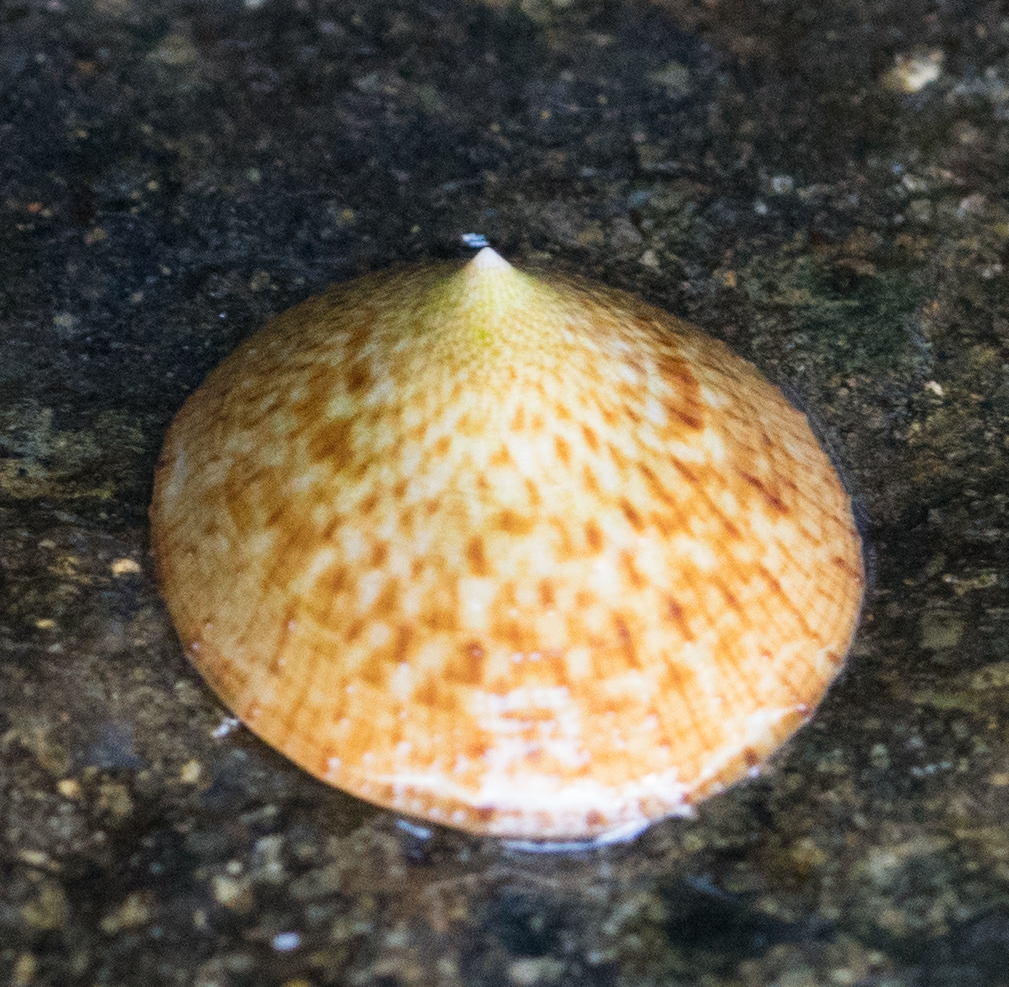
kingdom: Animalia
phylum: Mollusca
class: Gastropoda
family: Lottiidae
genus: Lottia
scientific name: Lottia limatula
